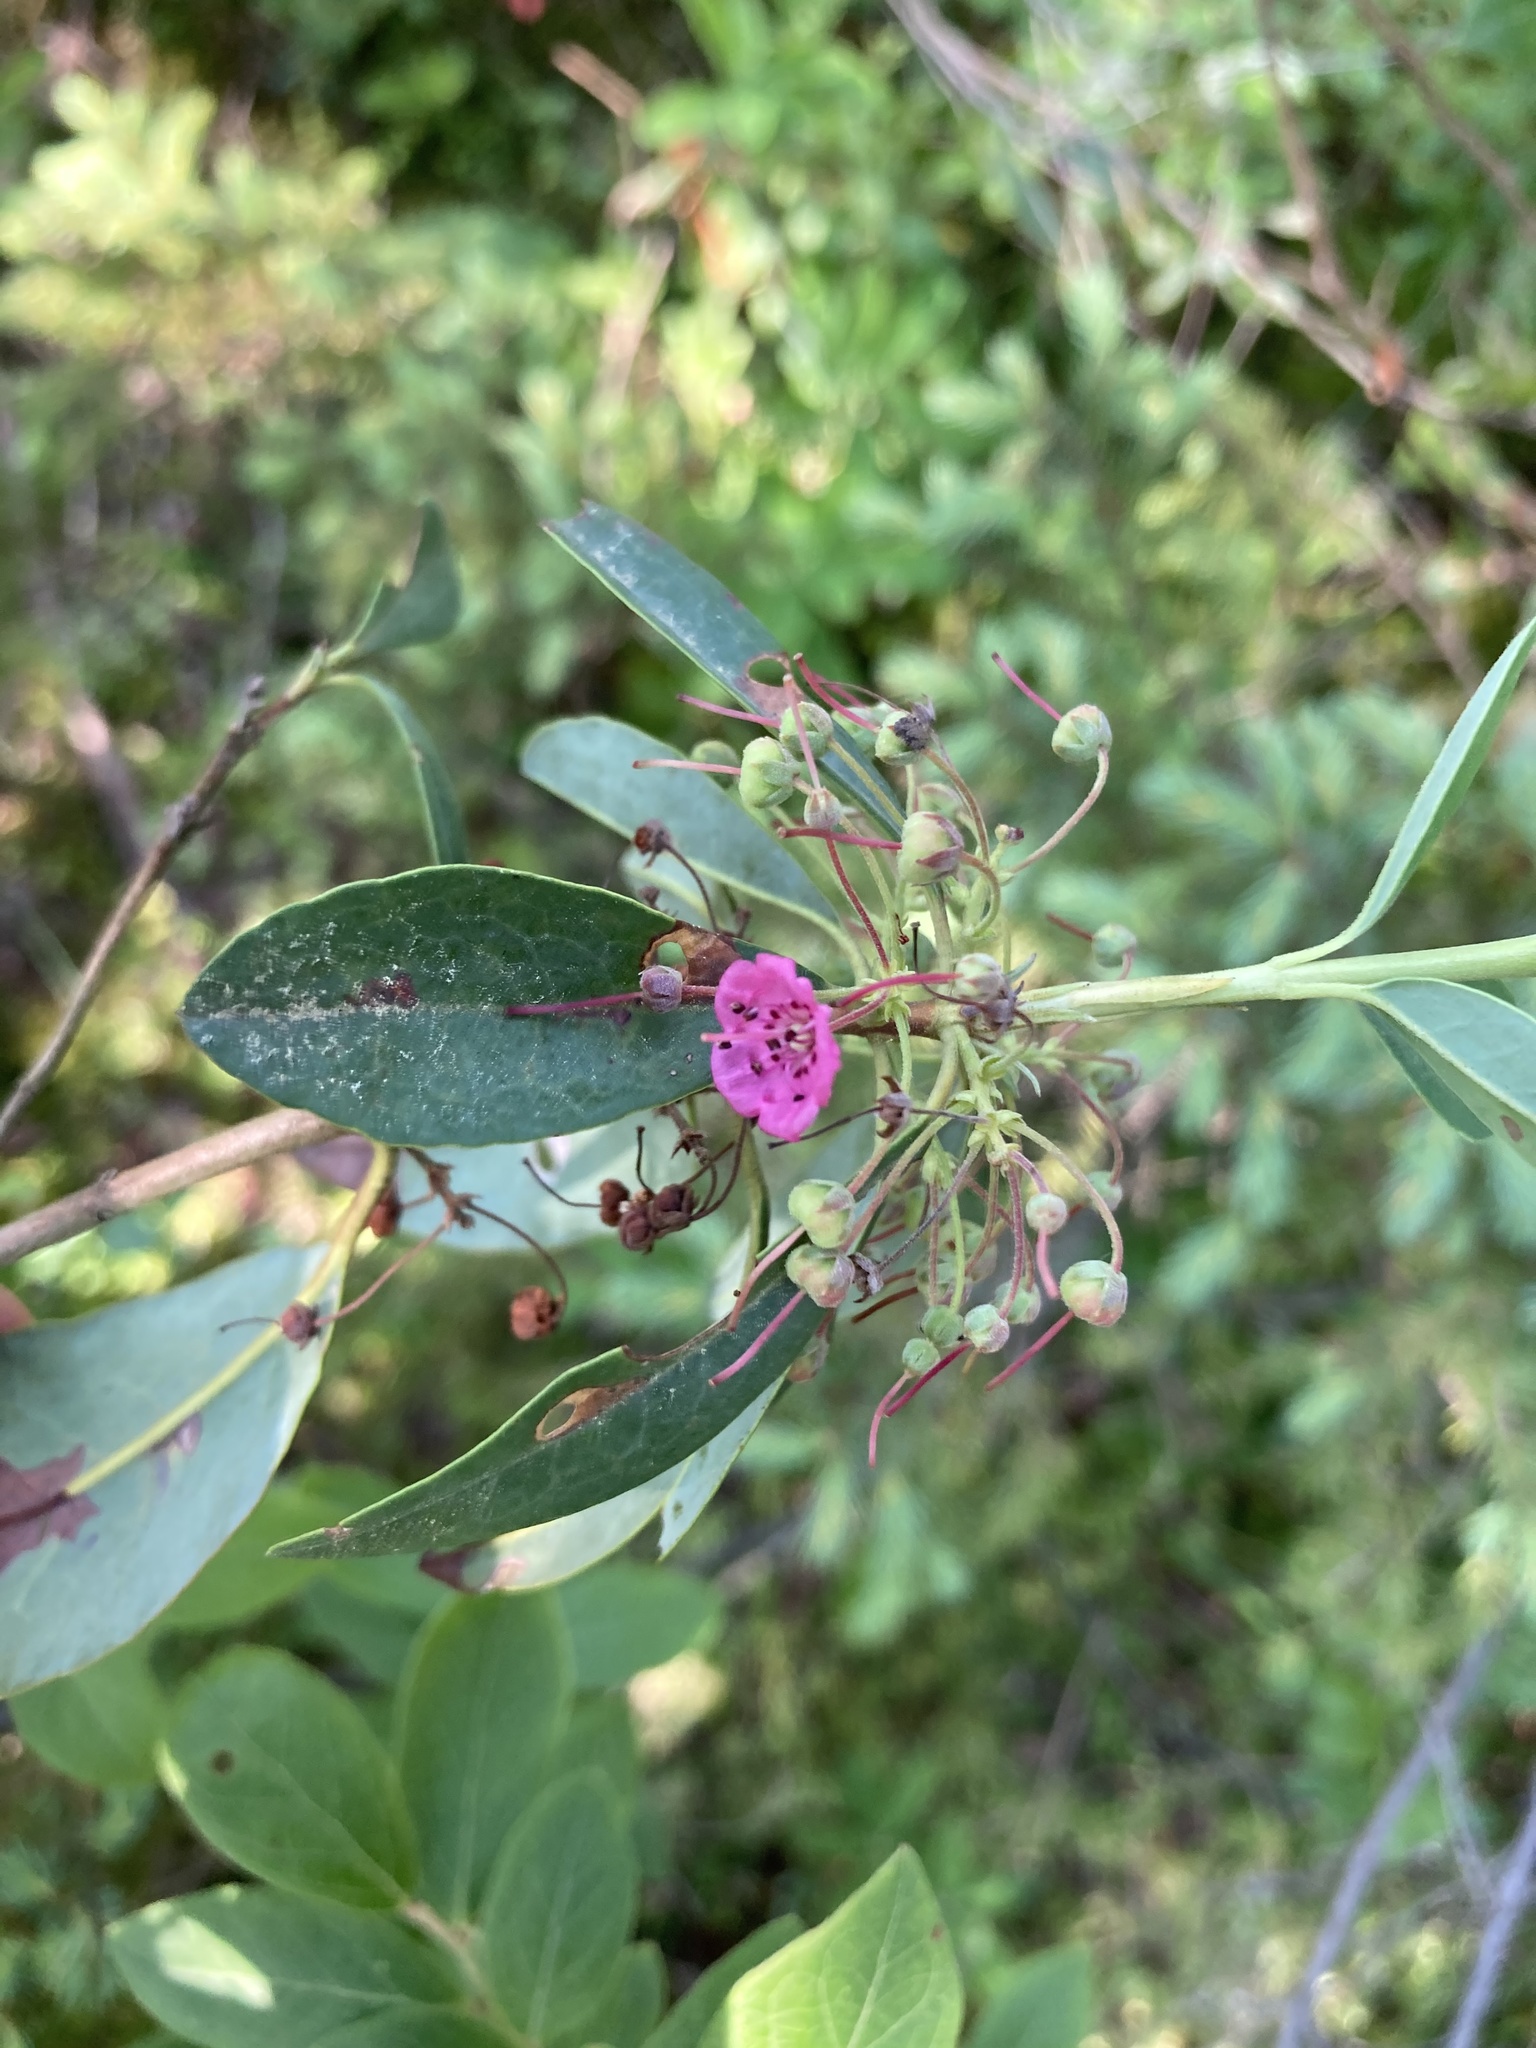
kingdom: Plantae
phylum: Tracheophyta
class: Magnoliopsida
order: Ericales
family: Ericaceae
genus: Kalmia
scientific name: Kalmia angustifolia
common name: Sheep-laurel
